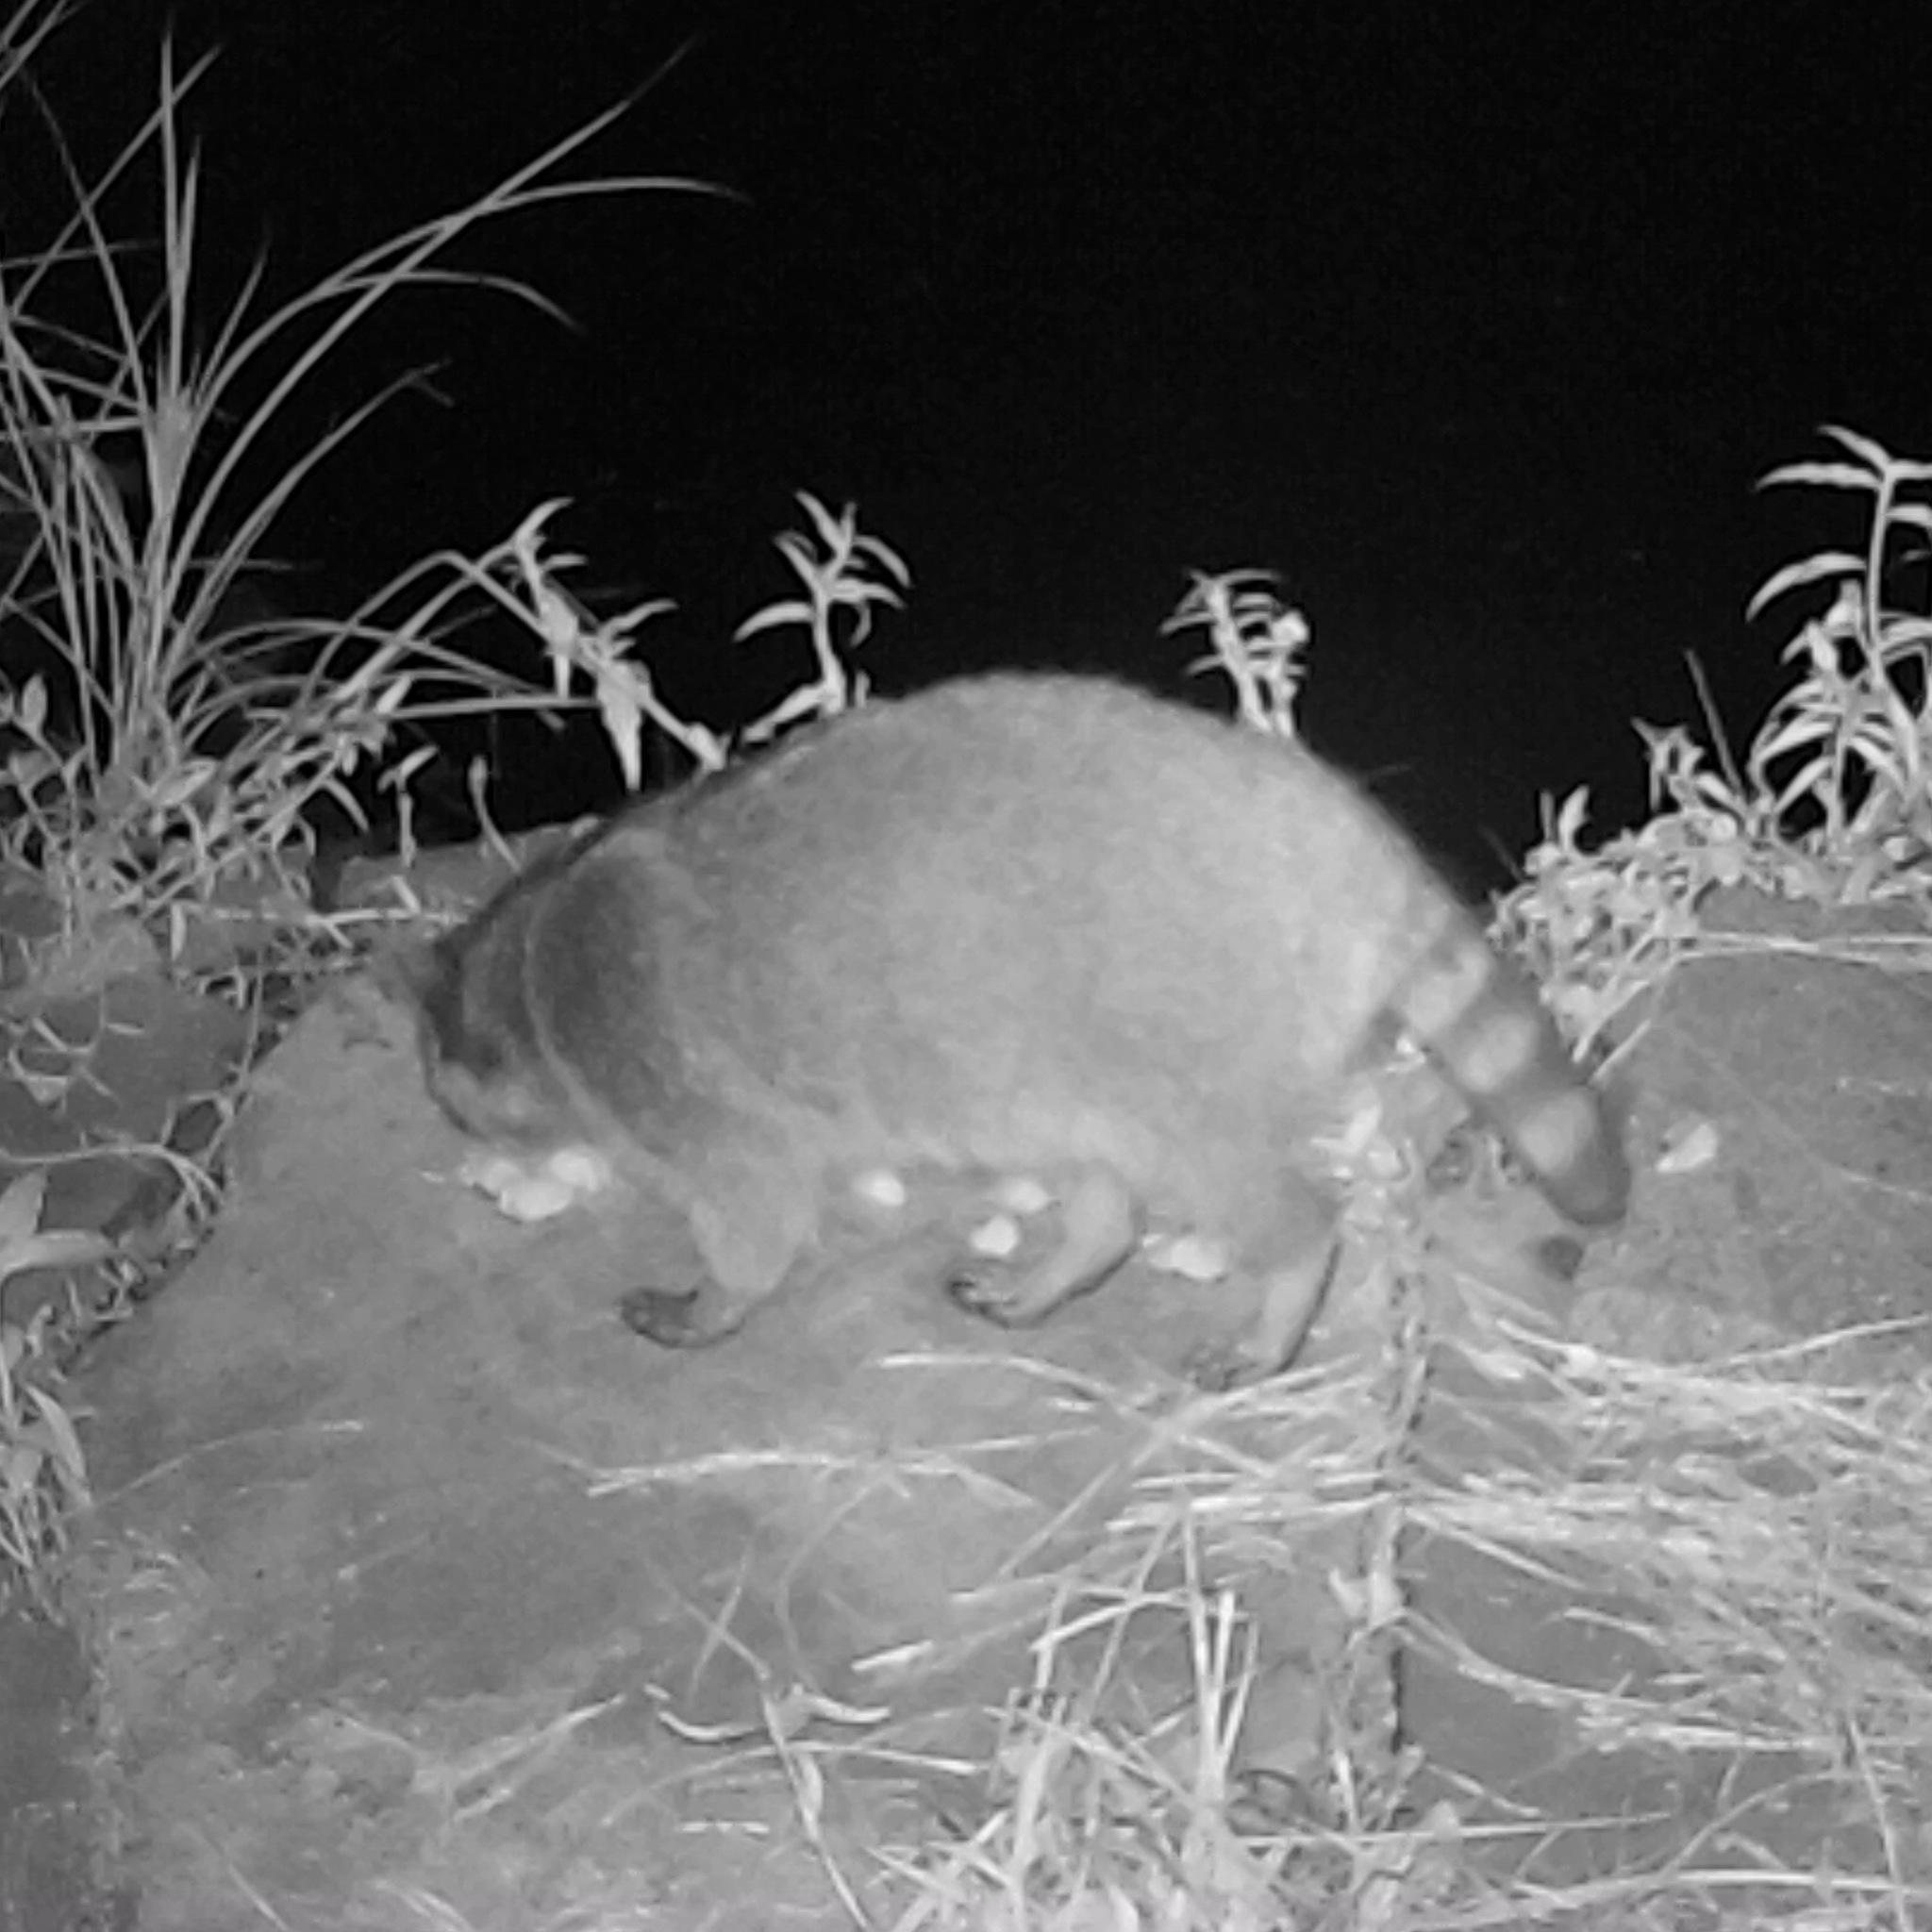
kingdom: Animalia
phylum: Chordata
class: Mammalia
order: Carnivora
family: Procyonidae
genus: Procyon
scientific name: Procyon lotor
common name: Raccoon
